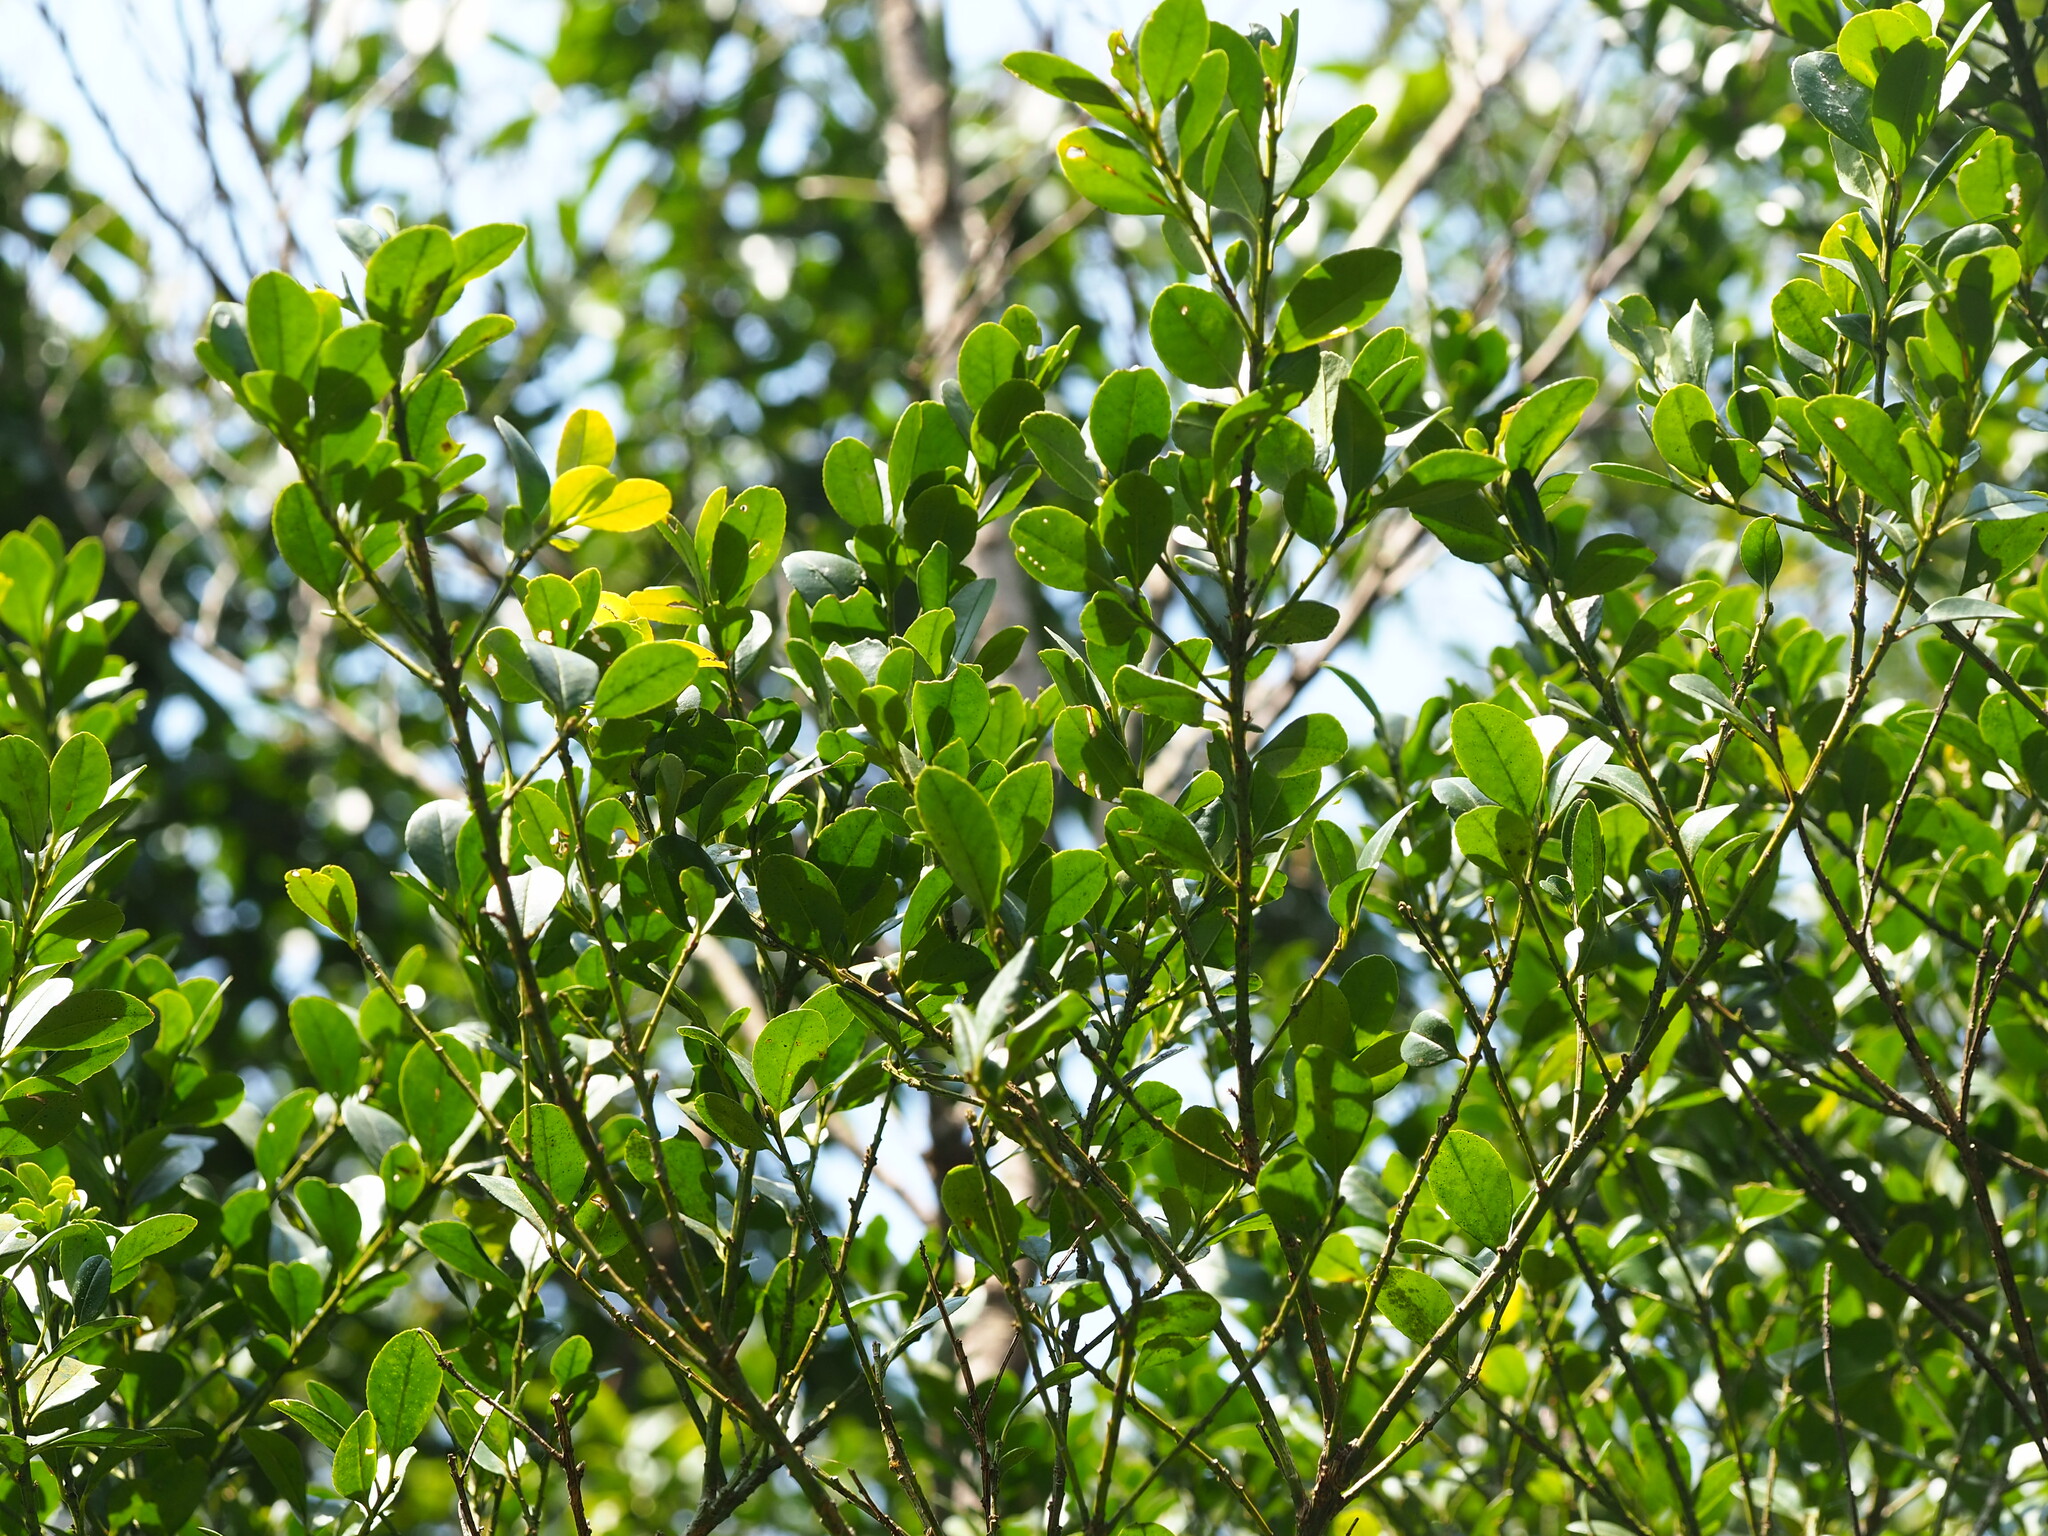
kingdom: Plantae
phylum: Tracheophyta
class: Magnoliopsida
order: Aquifoliales
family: Aquifoliaceae
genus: Ilex
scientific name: Ilex maximowicziana
